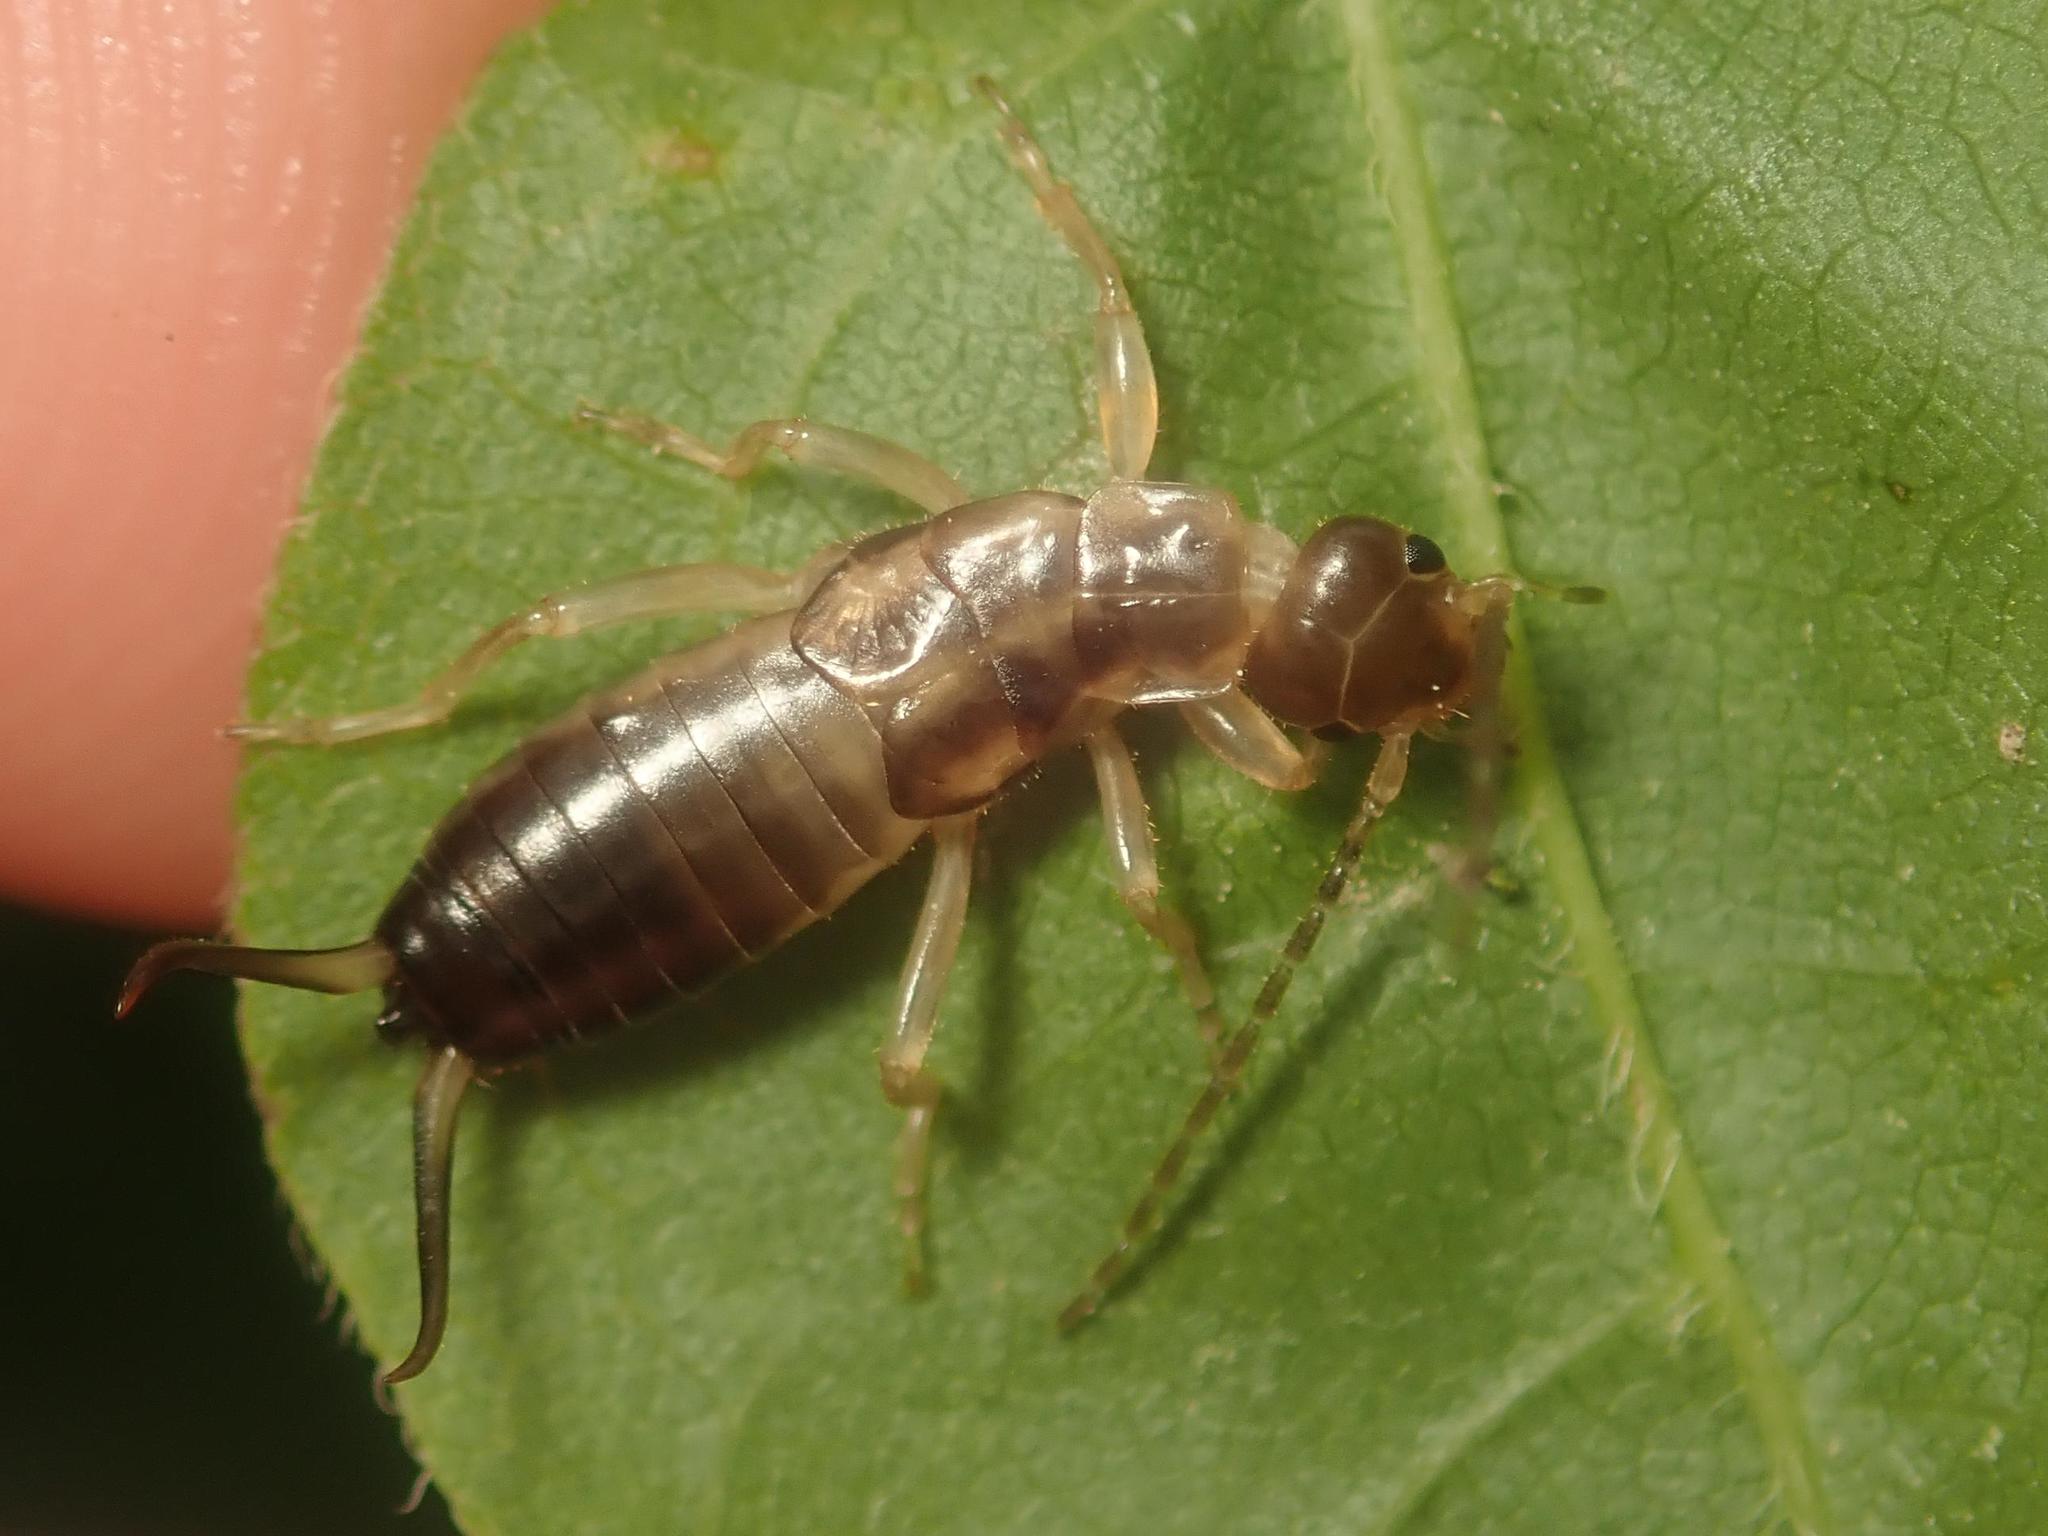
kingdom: Animalia
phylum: Arthropoda
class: Insecta
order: Dermaptera
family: Forficulidae
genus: Forficula
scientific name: Forficula
